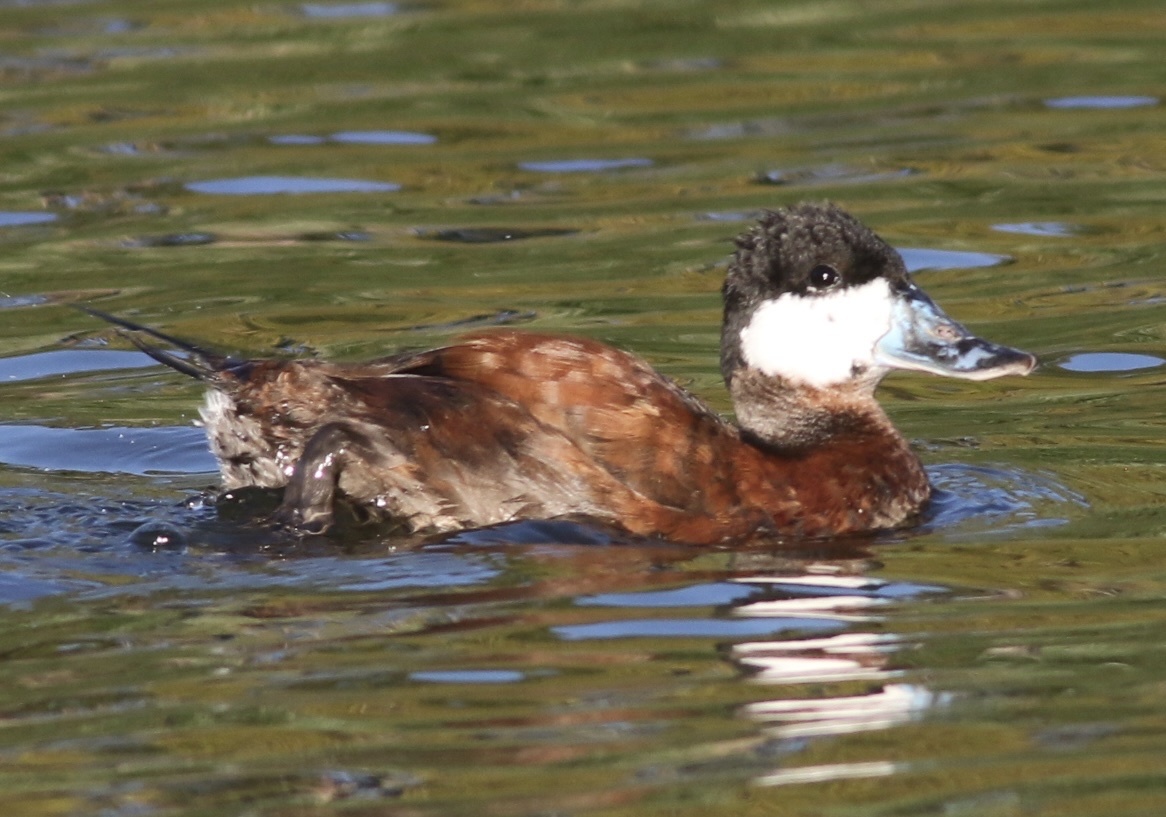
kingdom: Animalia
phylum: Chordata
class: Aves
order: Anseriformes
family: Anatidae
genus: Oxyura
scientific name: Oxyura jamaicensis
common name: Ruddy duck
